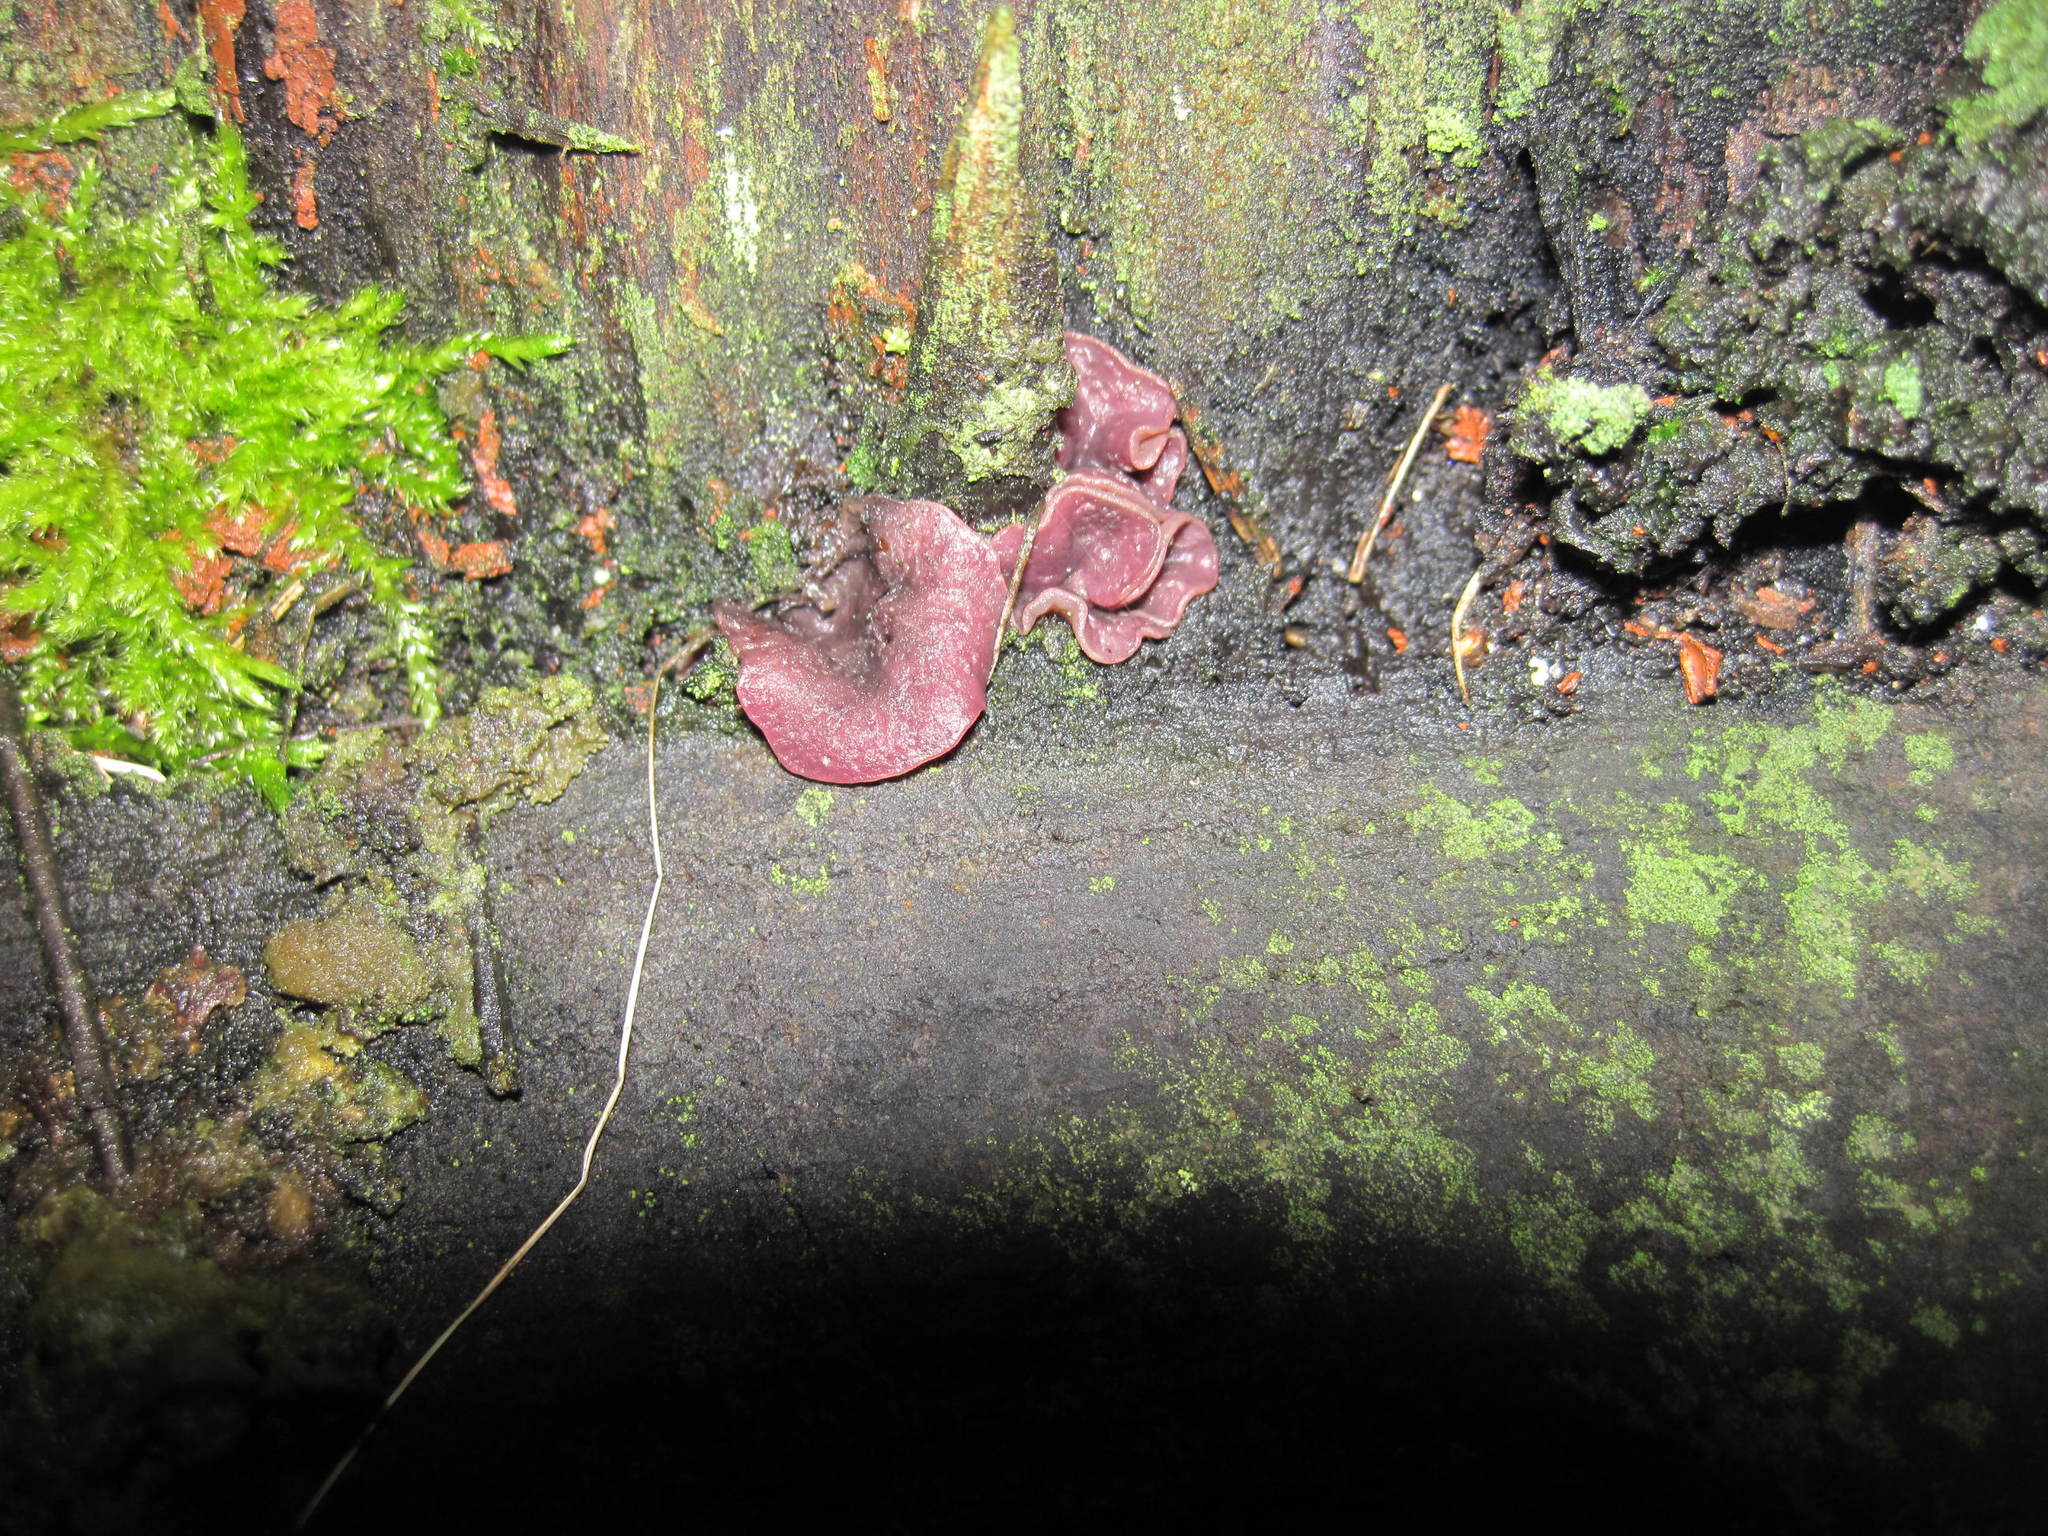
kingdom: Fungi
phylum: Ascomycota
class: Leotiomycetes
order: Helotiales
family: Gelatinodiscaceae
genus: Ascocoryne
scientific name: Ascocoryne
